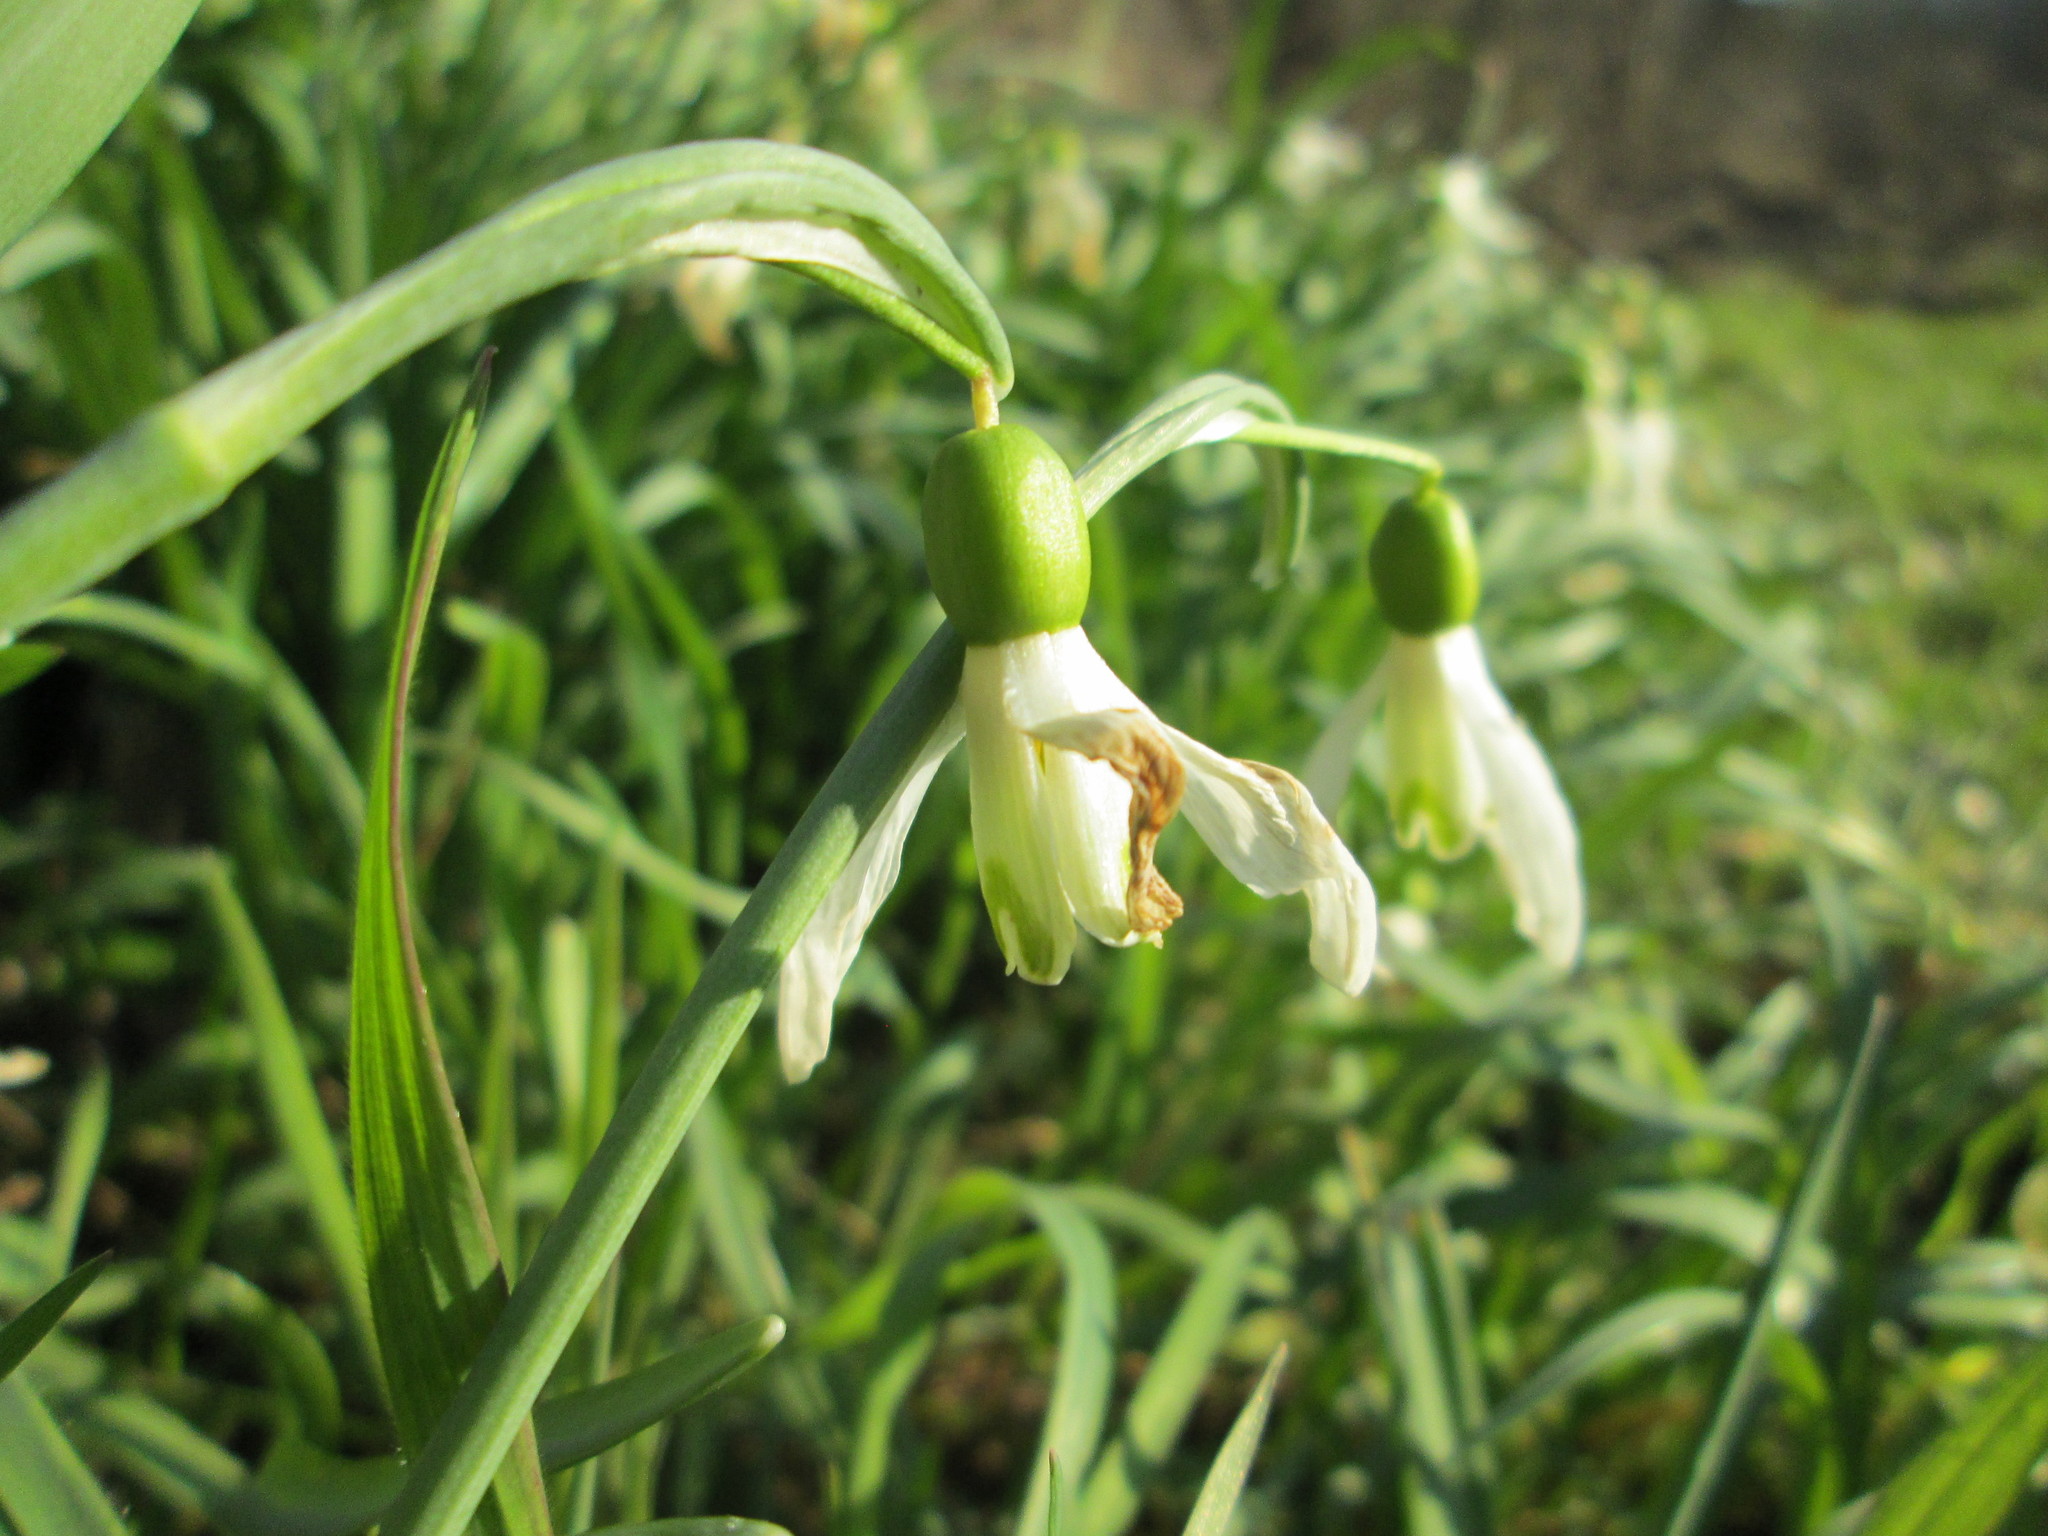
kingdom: Plantae
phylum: Tracheophyta
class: Liliopsida
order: Asparagales
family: Amaryllidaceae
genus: Galanthus
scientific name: Galanthus nivalis
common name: Snowdrop
